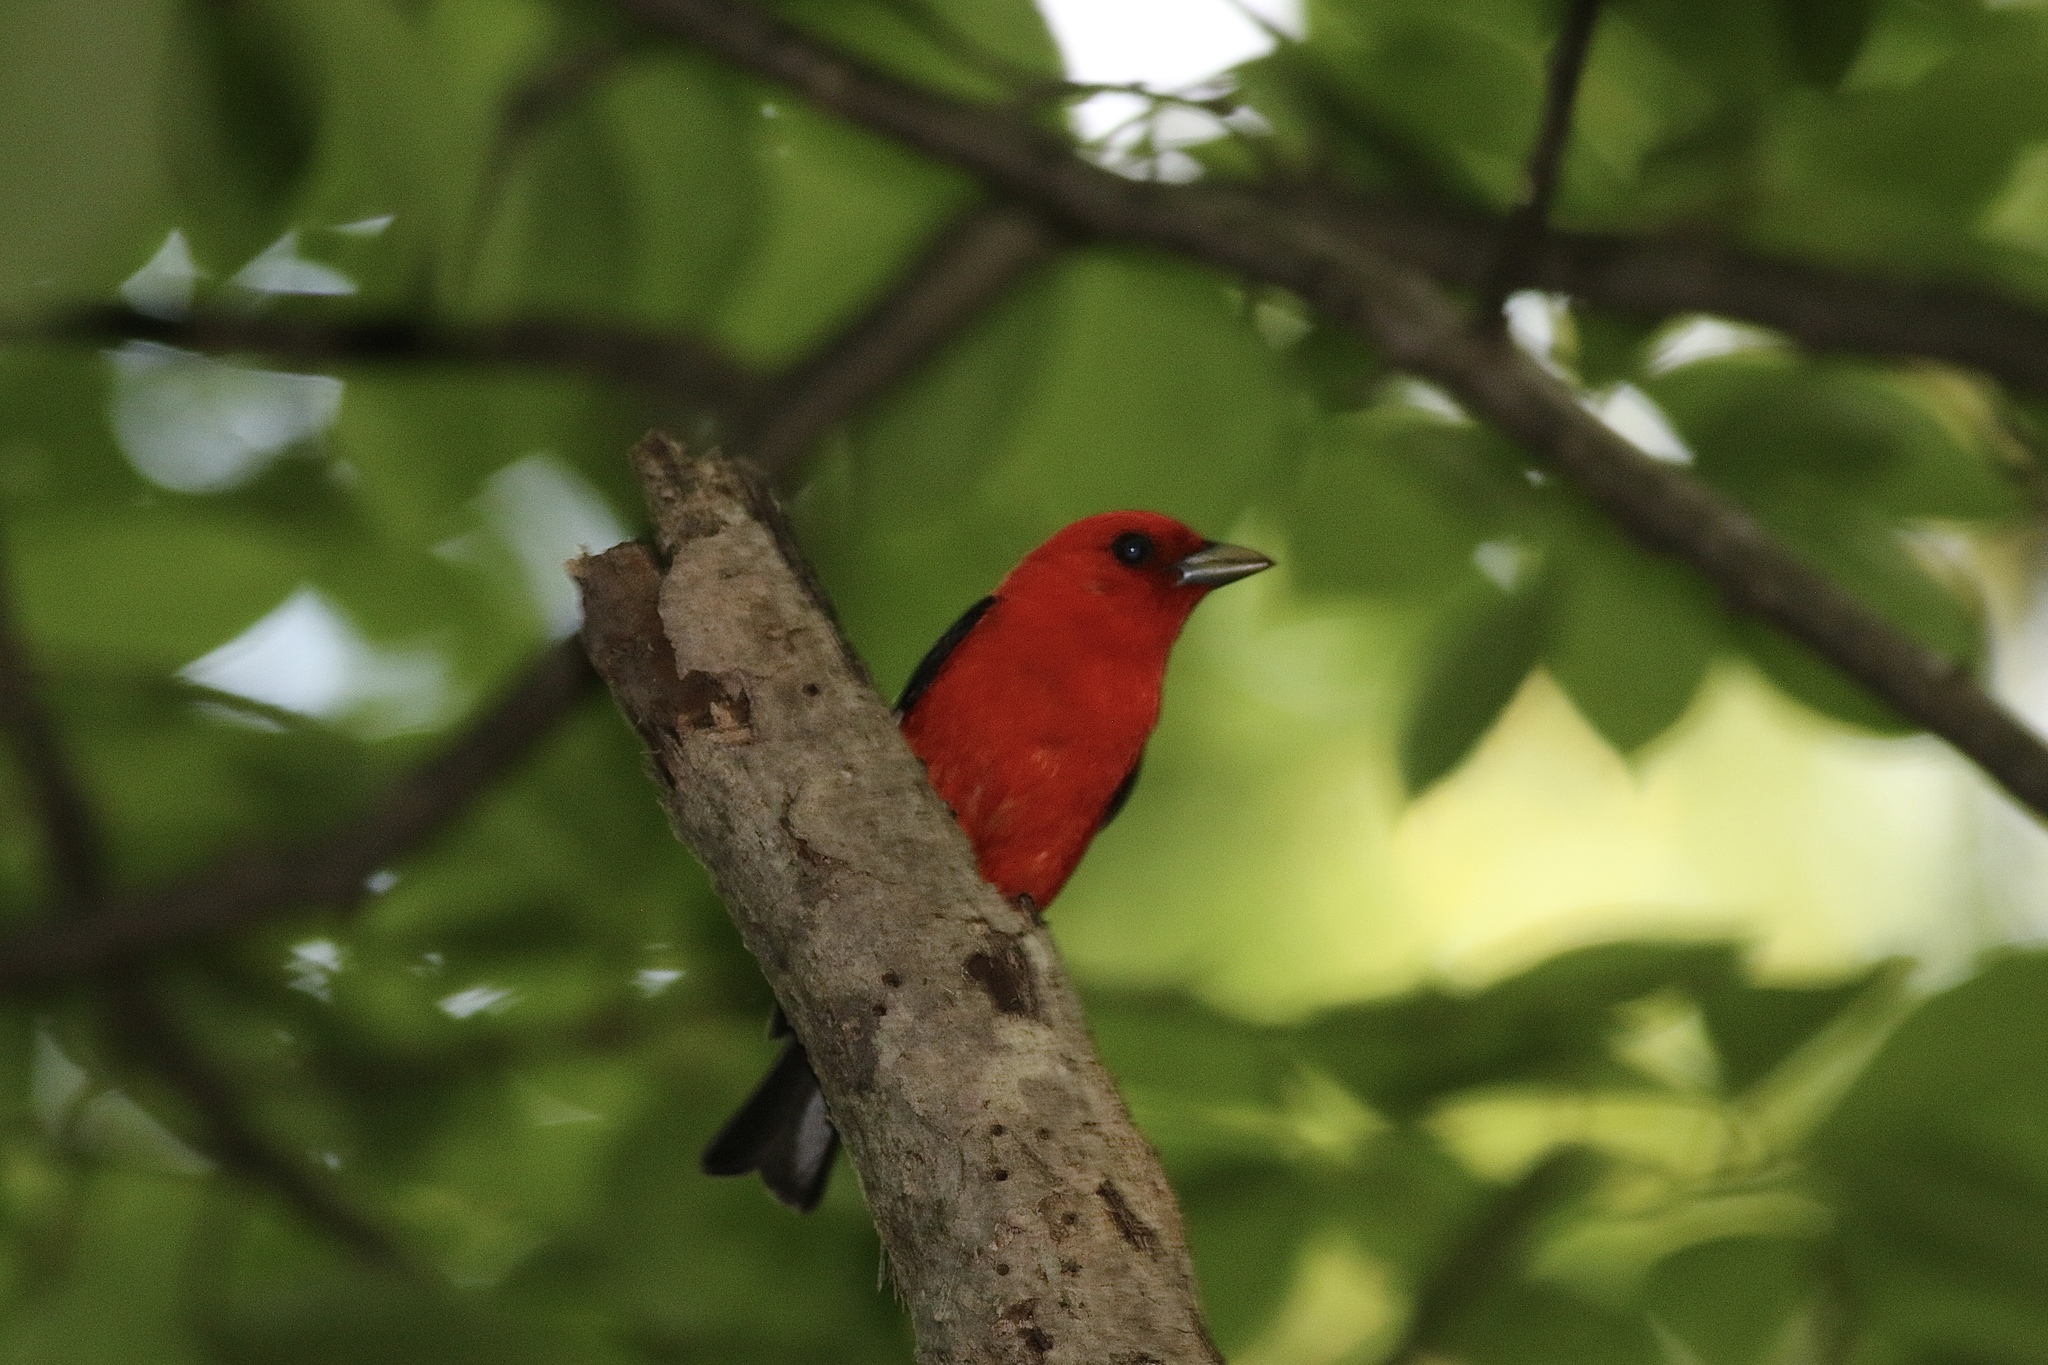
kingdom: Animalia
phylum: Chordata
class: Aves
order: Passeriformes
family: Cardinalidae
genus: Piranga
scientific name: Piranga olivacea
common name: Scarlet tanager
